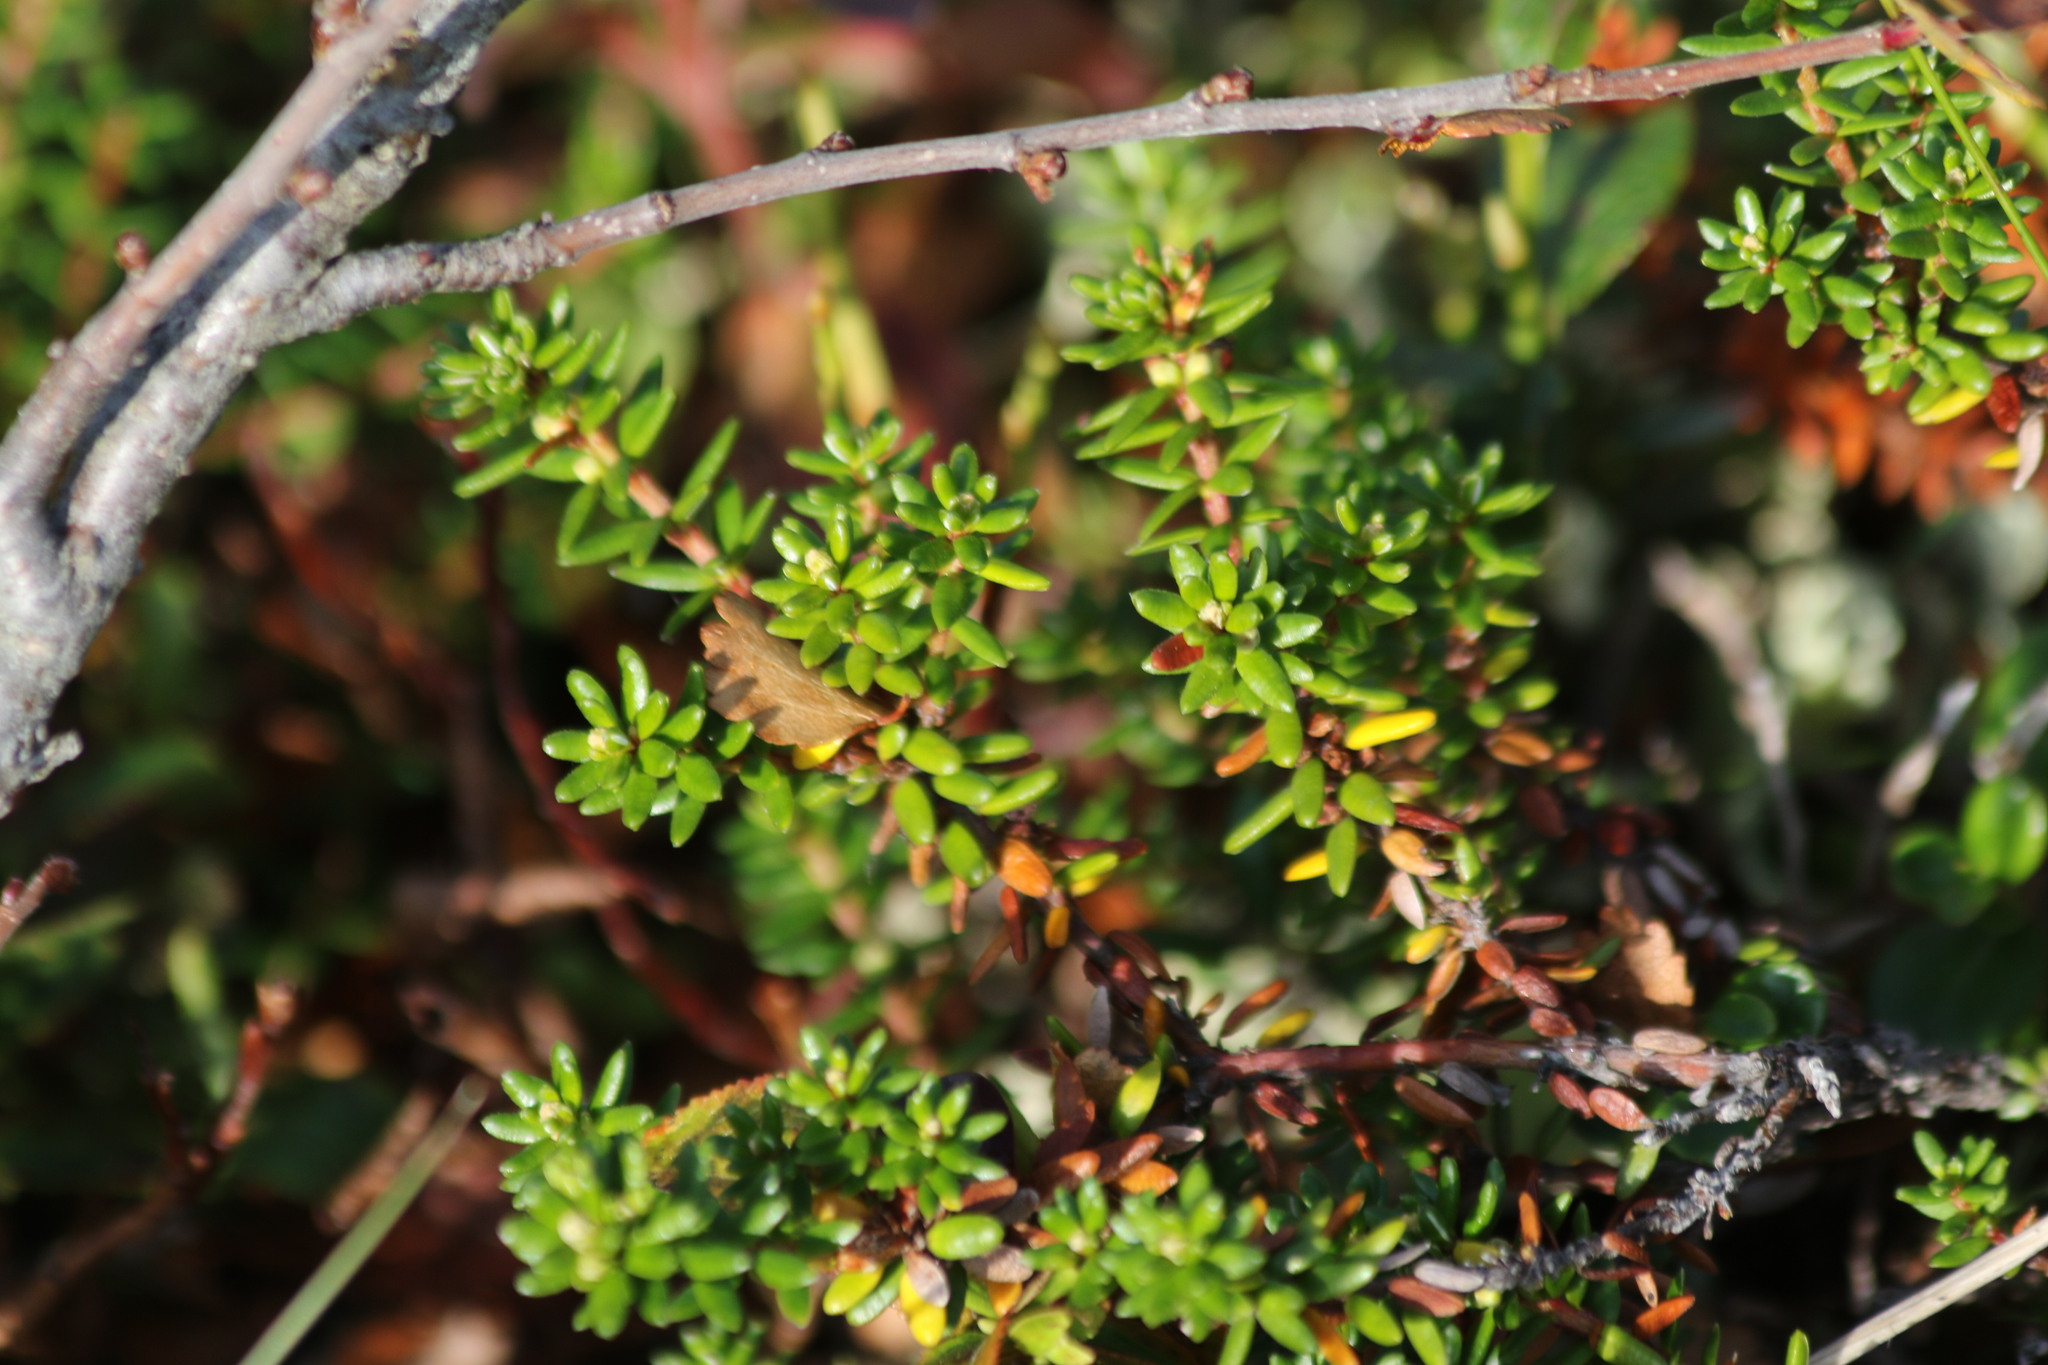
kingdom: Plantae
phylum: Tracheophyta
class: Magnoliopsida
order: Ericales
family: Ericaceae
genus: Empetrum
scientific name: Empetrum nigrum
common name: Black crowberry
